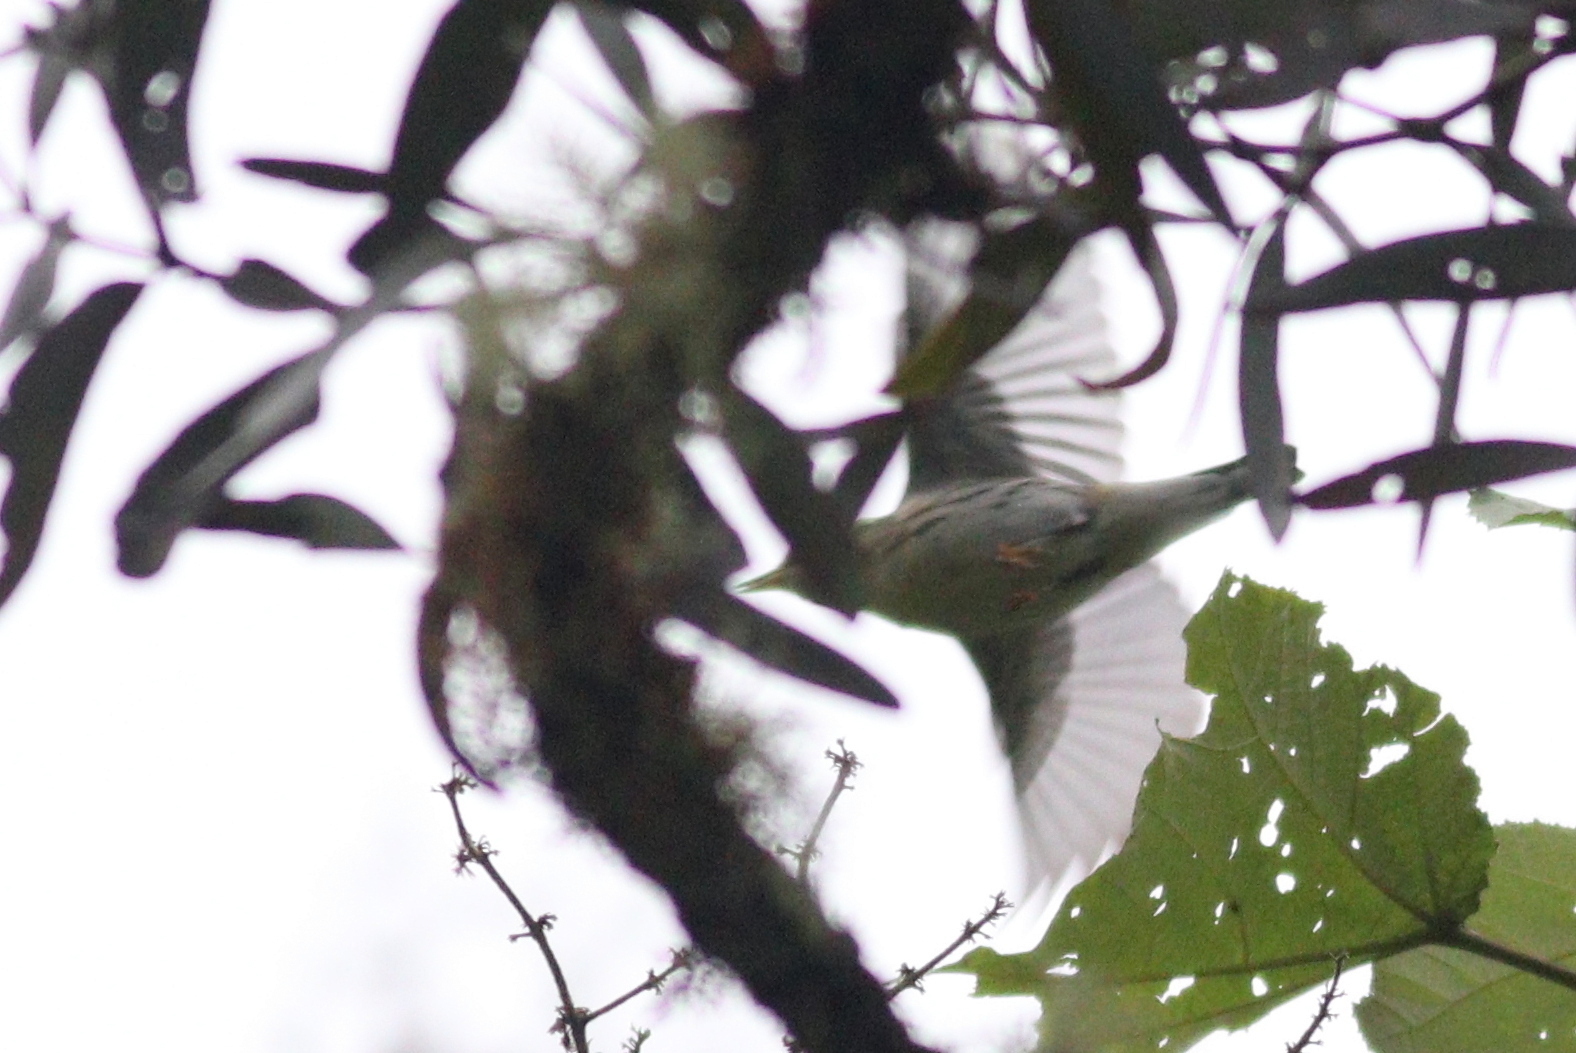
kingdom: Animalia
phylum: Chordata
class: Aves
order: Passeriformes
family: Parulidae
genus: Setophaga
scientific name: Setophaga striata
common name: Blackpoll warbler
